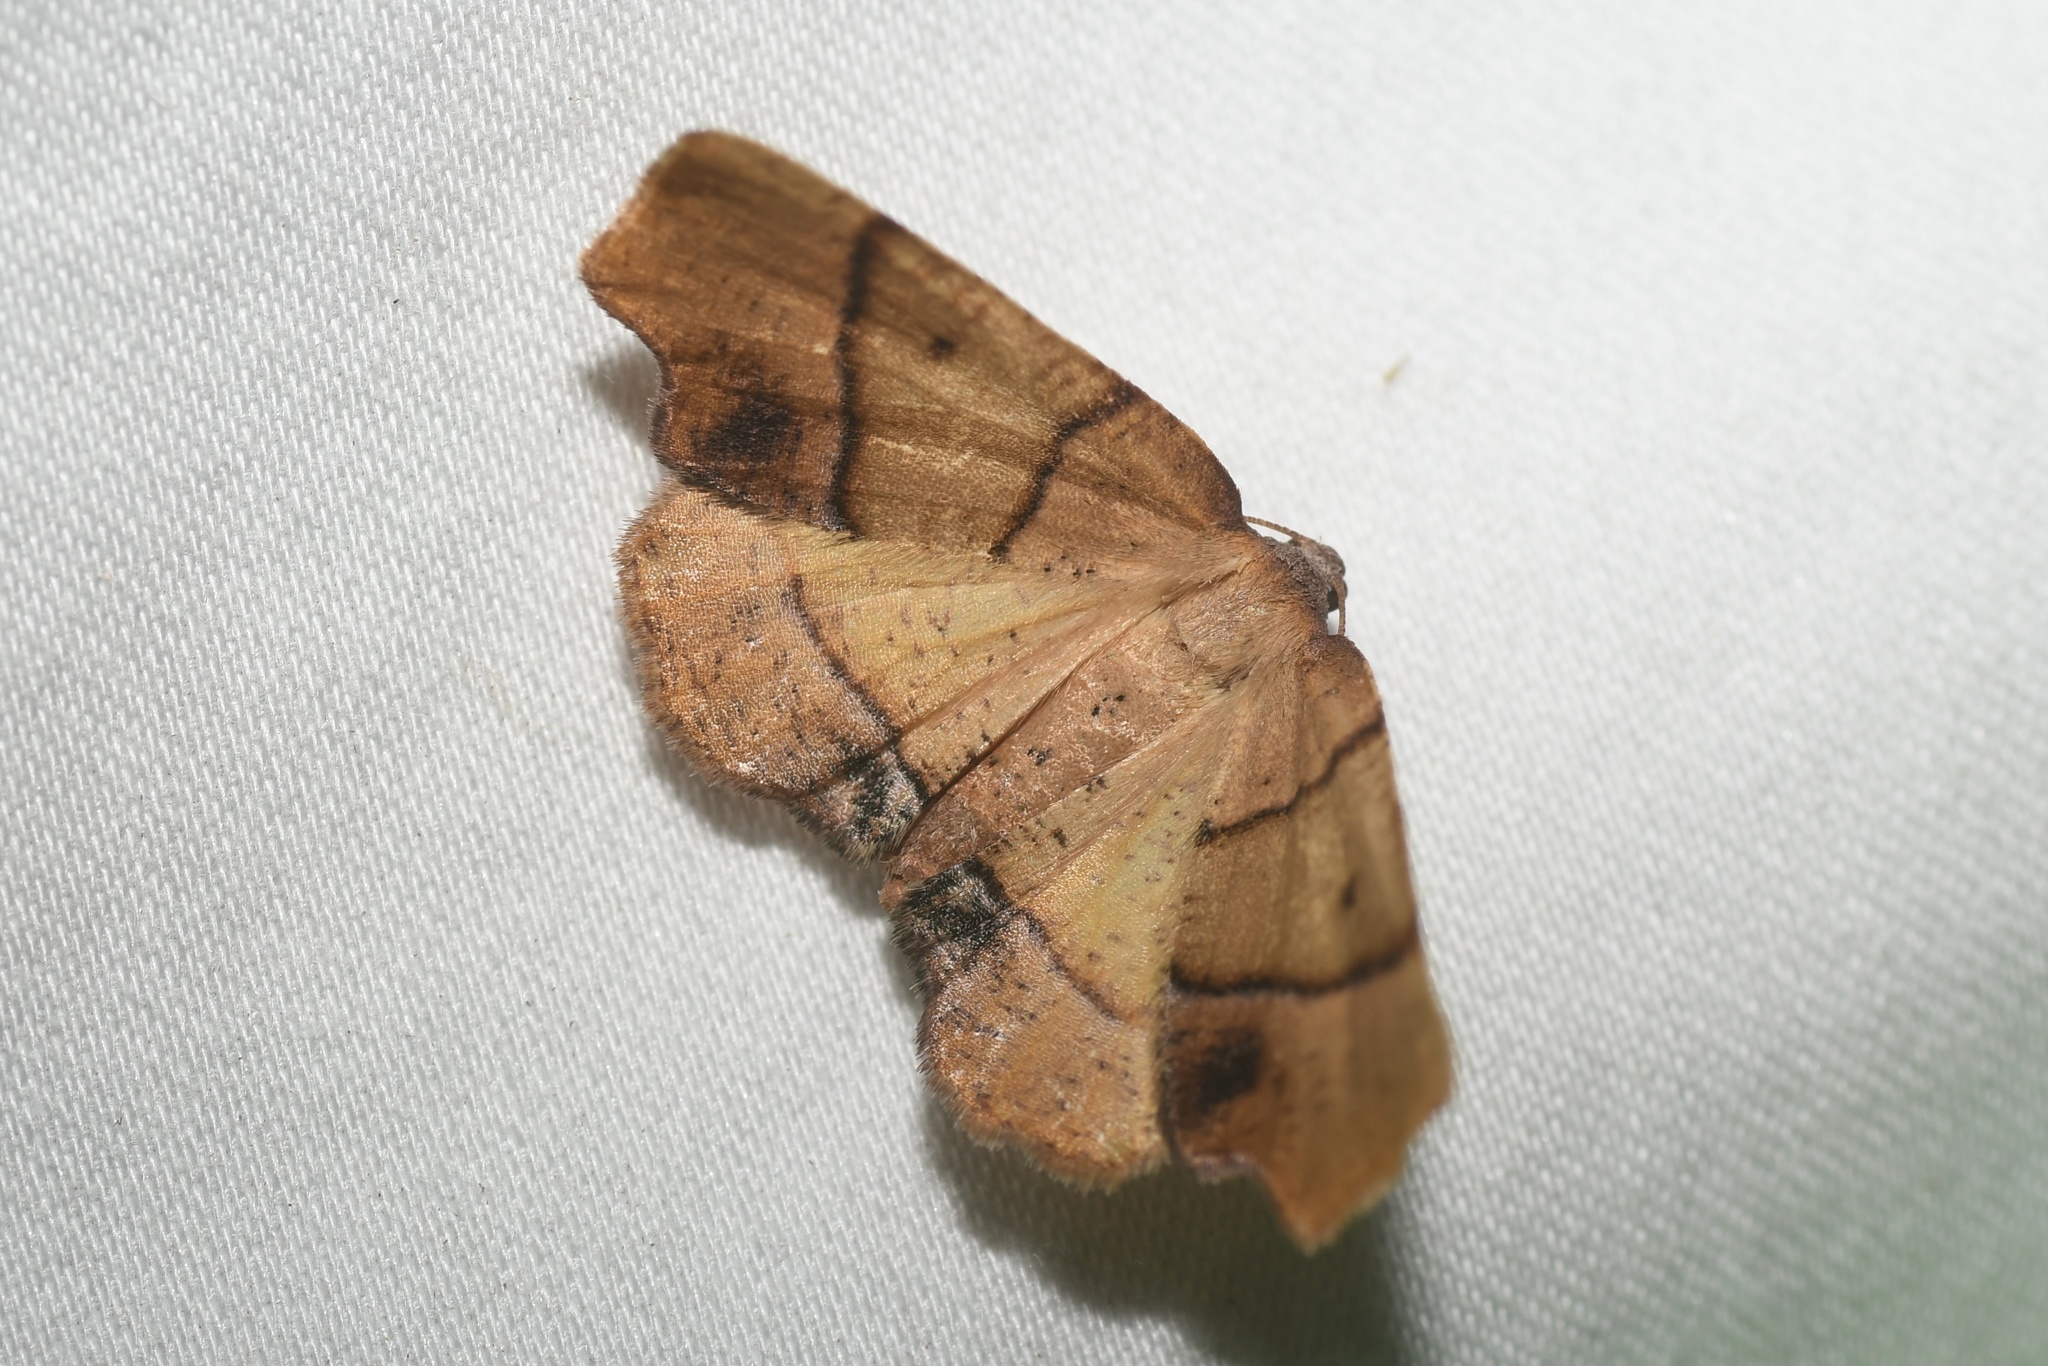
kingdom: Animalia
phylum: Arthropoda
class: Insecta
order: Lepidoptera
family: Geometridae
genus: Plagodis
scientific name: Plagodis phlogosaria
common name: Straight-lined plagodis
